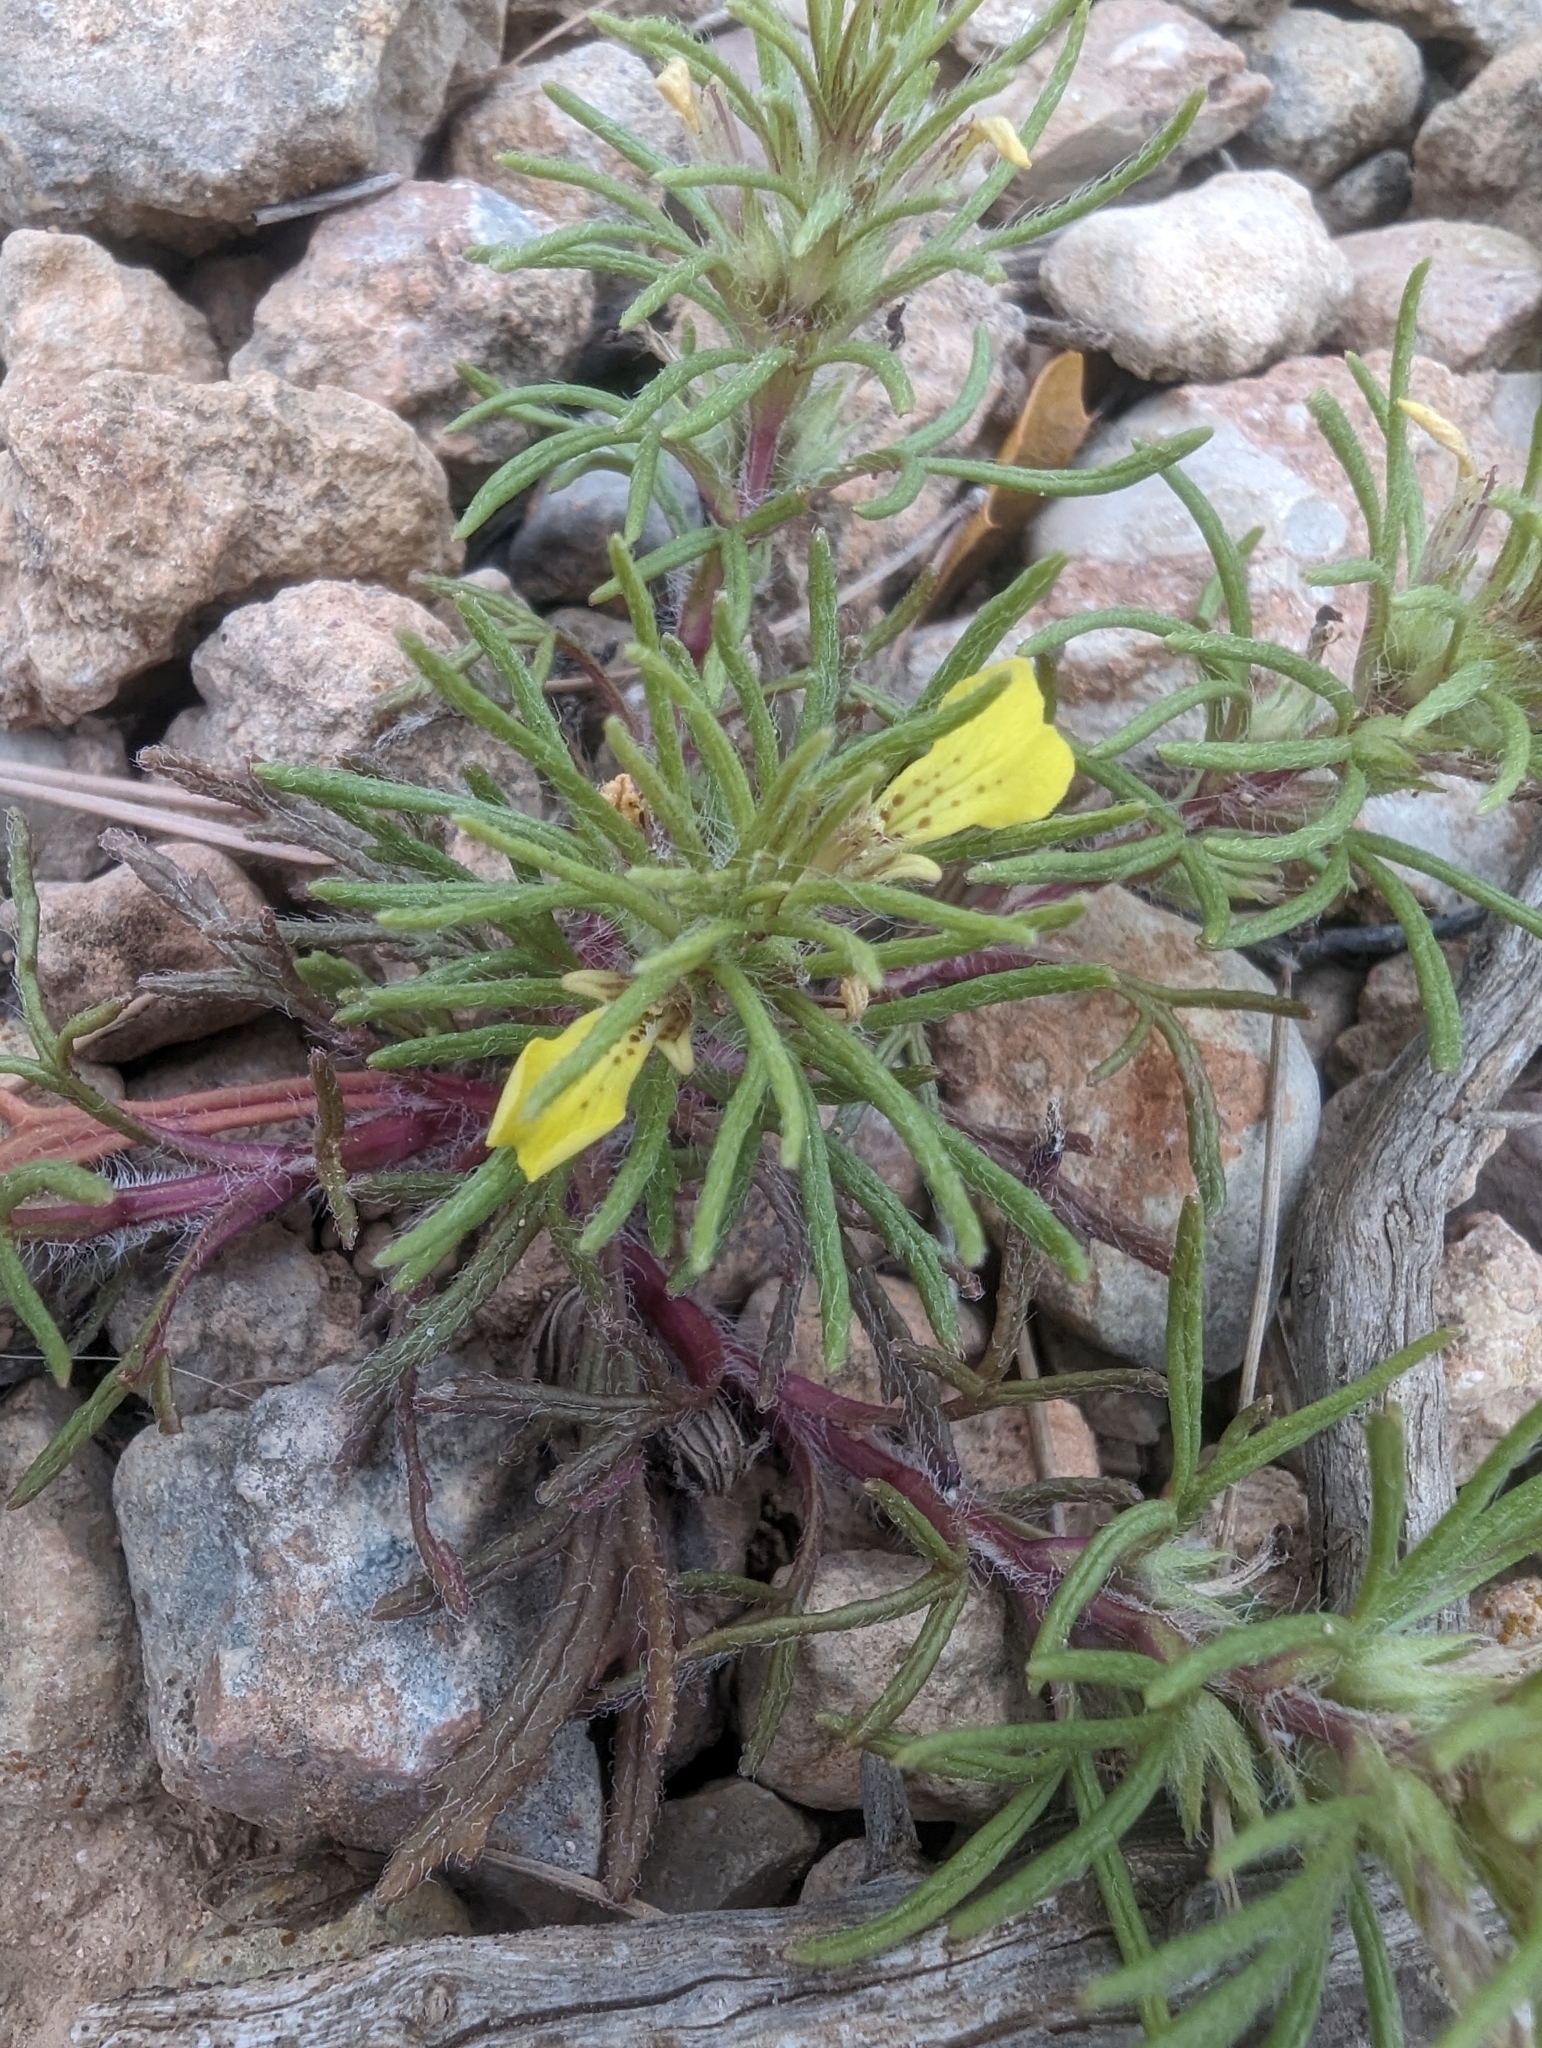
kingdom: Plantae
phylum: Tracheophyta
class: Magnoliopsida
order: Lamiales
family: Lamiaceae
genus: Ajuga
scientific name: Ajuga chamaepitys
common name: Ground-pine
